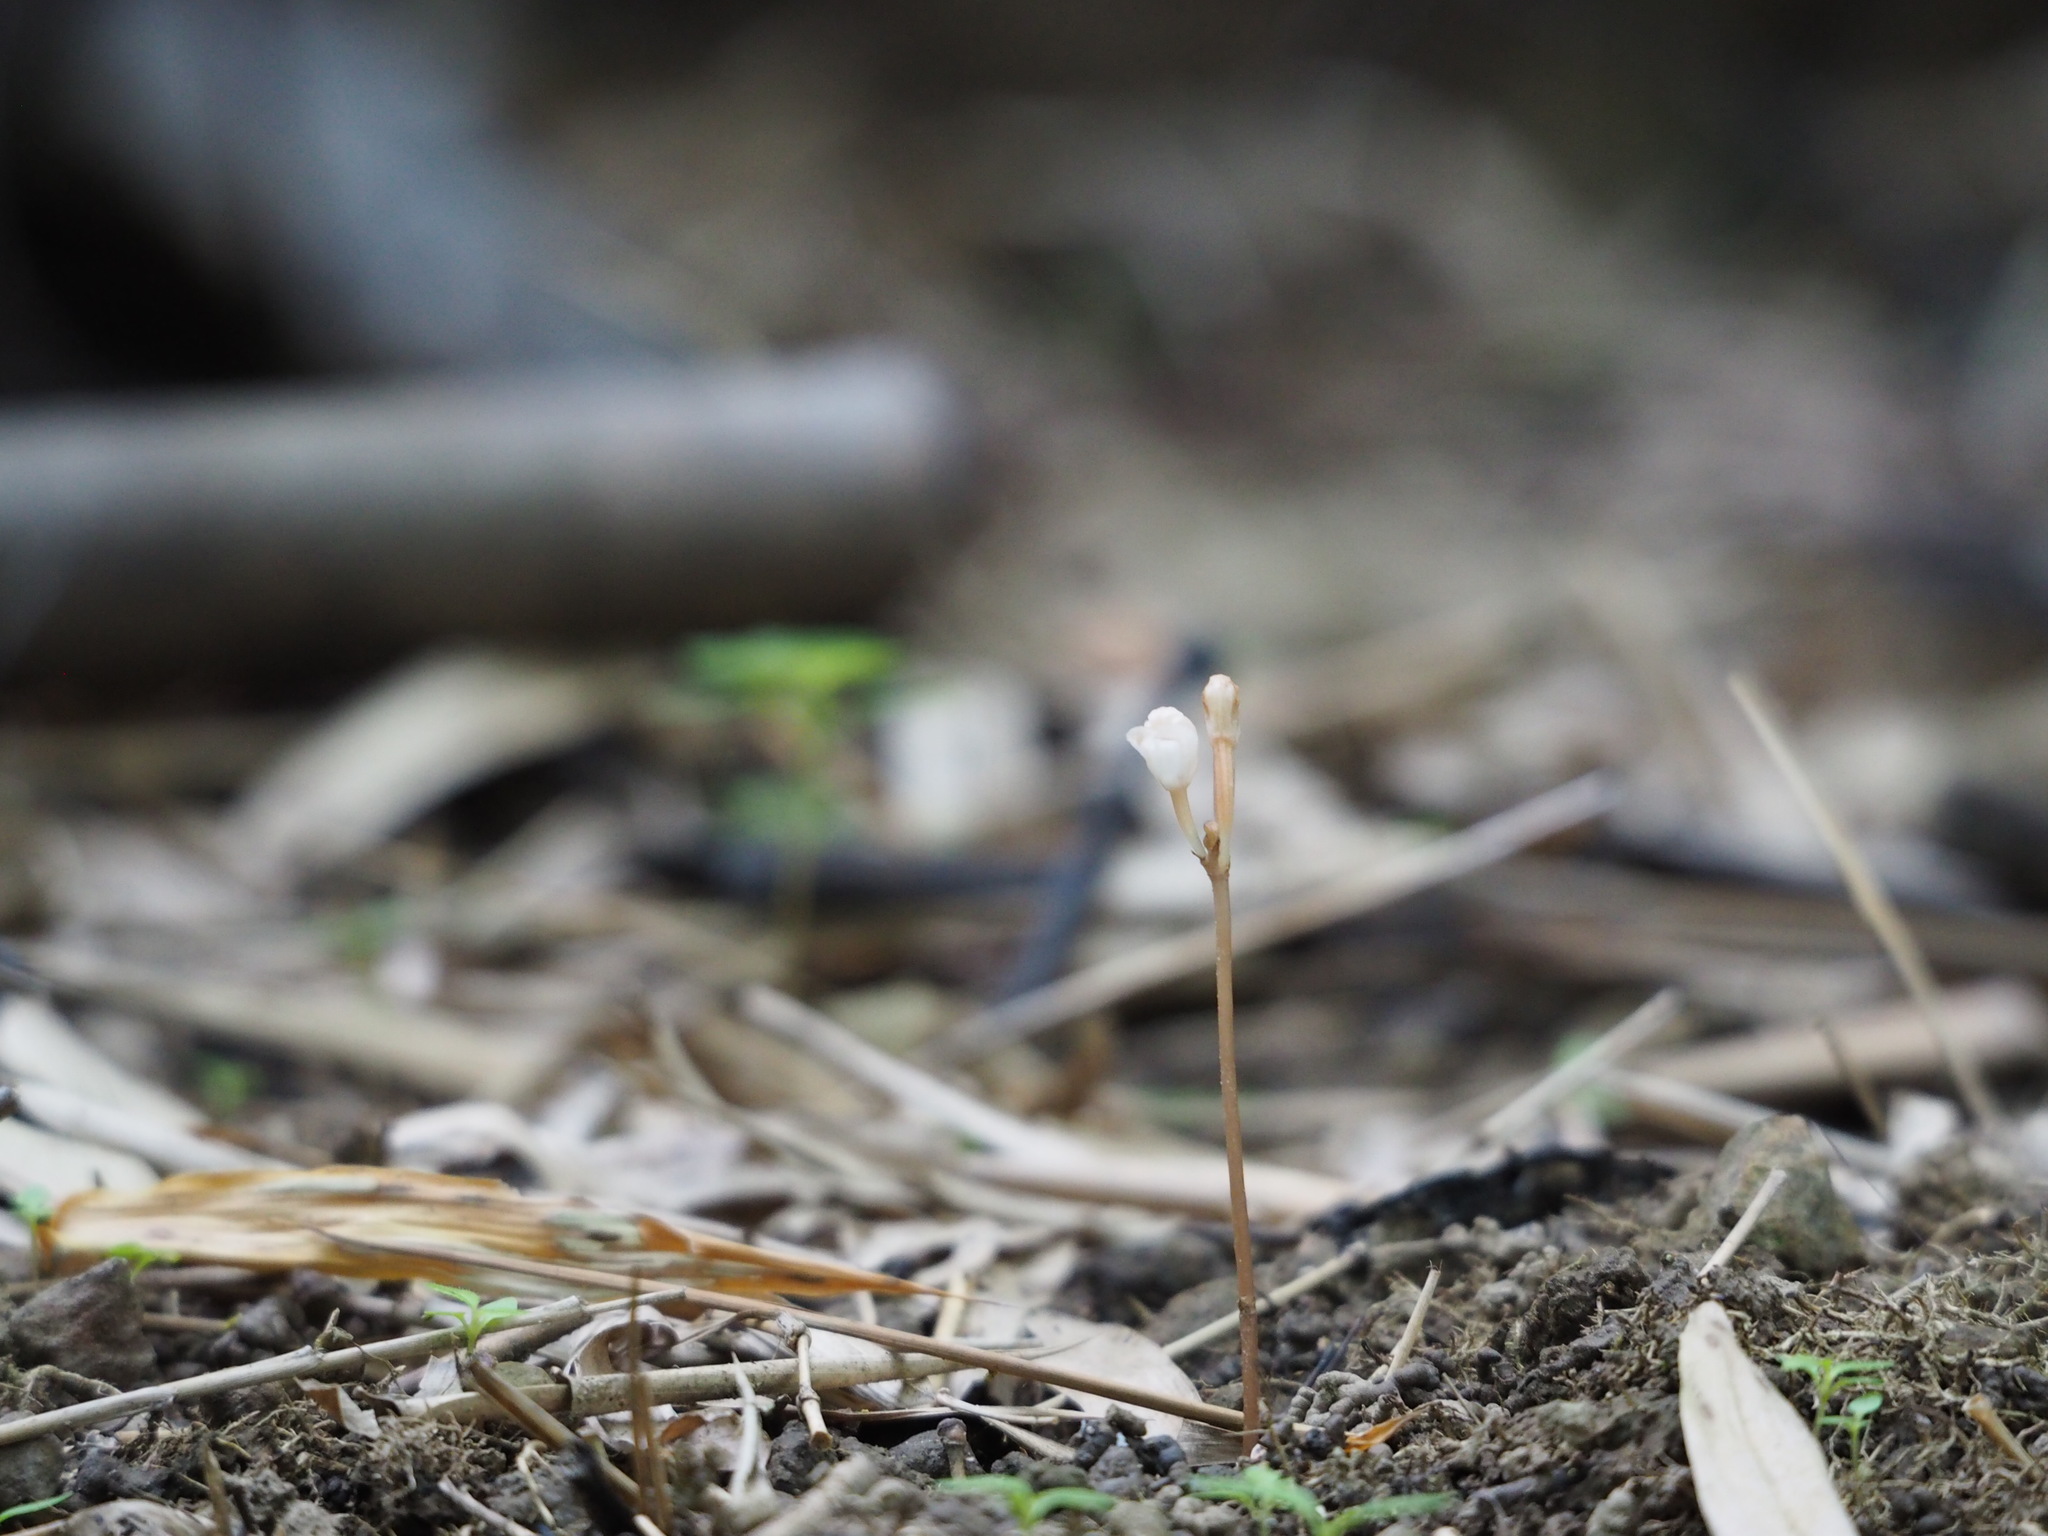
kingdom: Plantae
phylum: Tracheophyta
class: Liliopsida
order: Asparagales
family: Orchidaceae
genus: Didymoplexis
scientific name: Didymoplexis pallens
